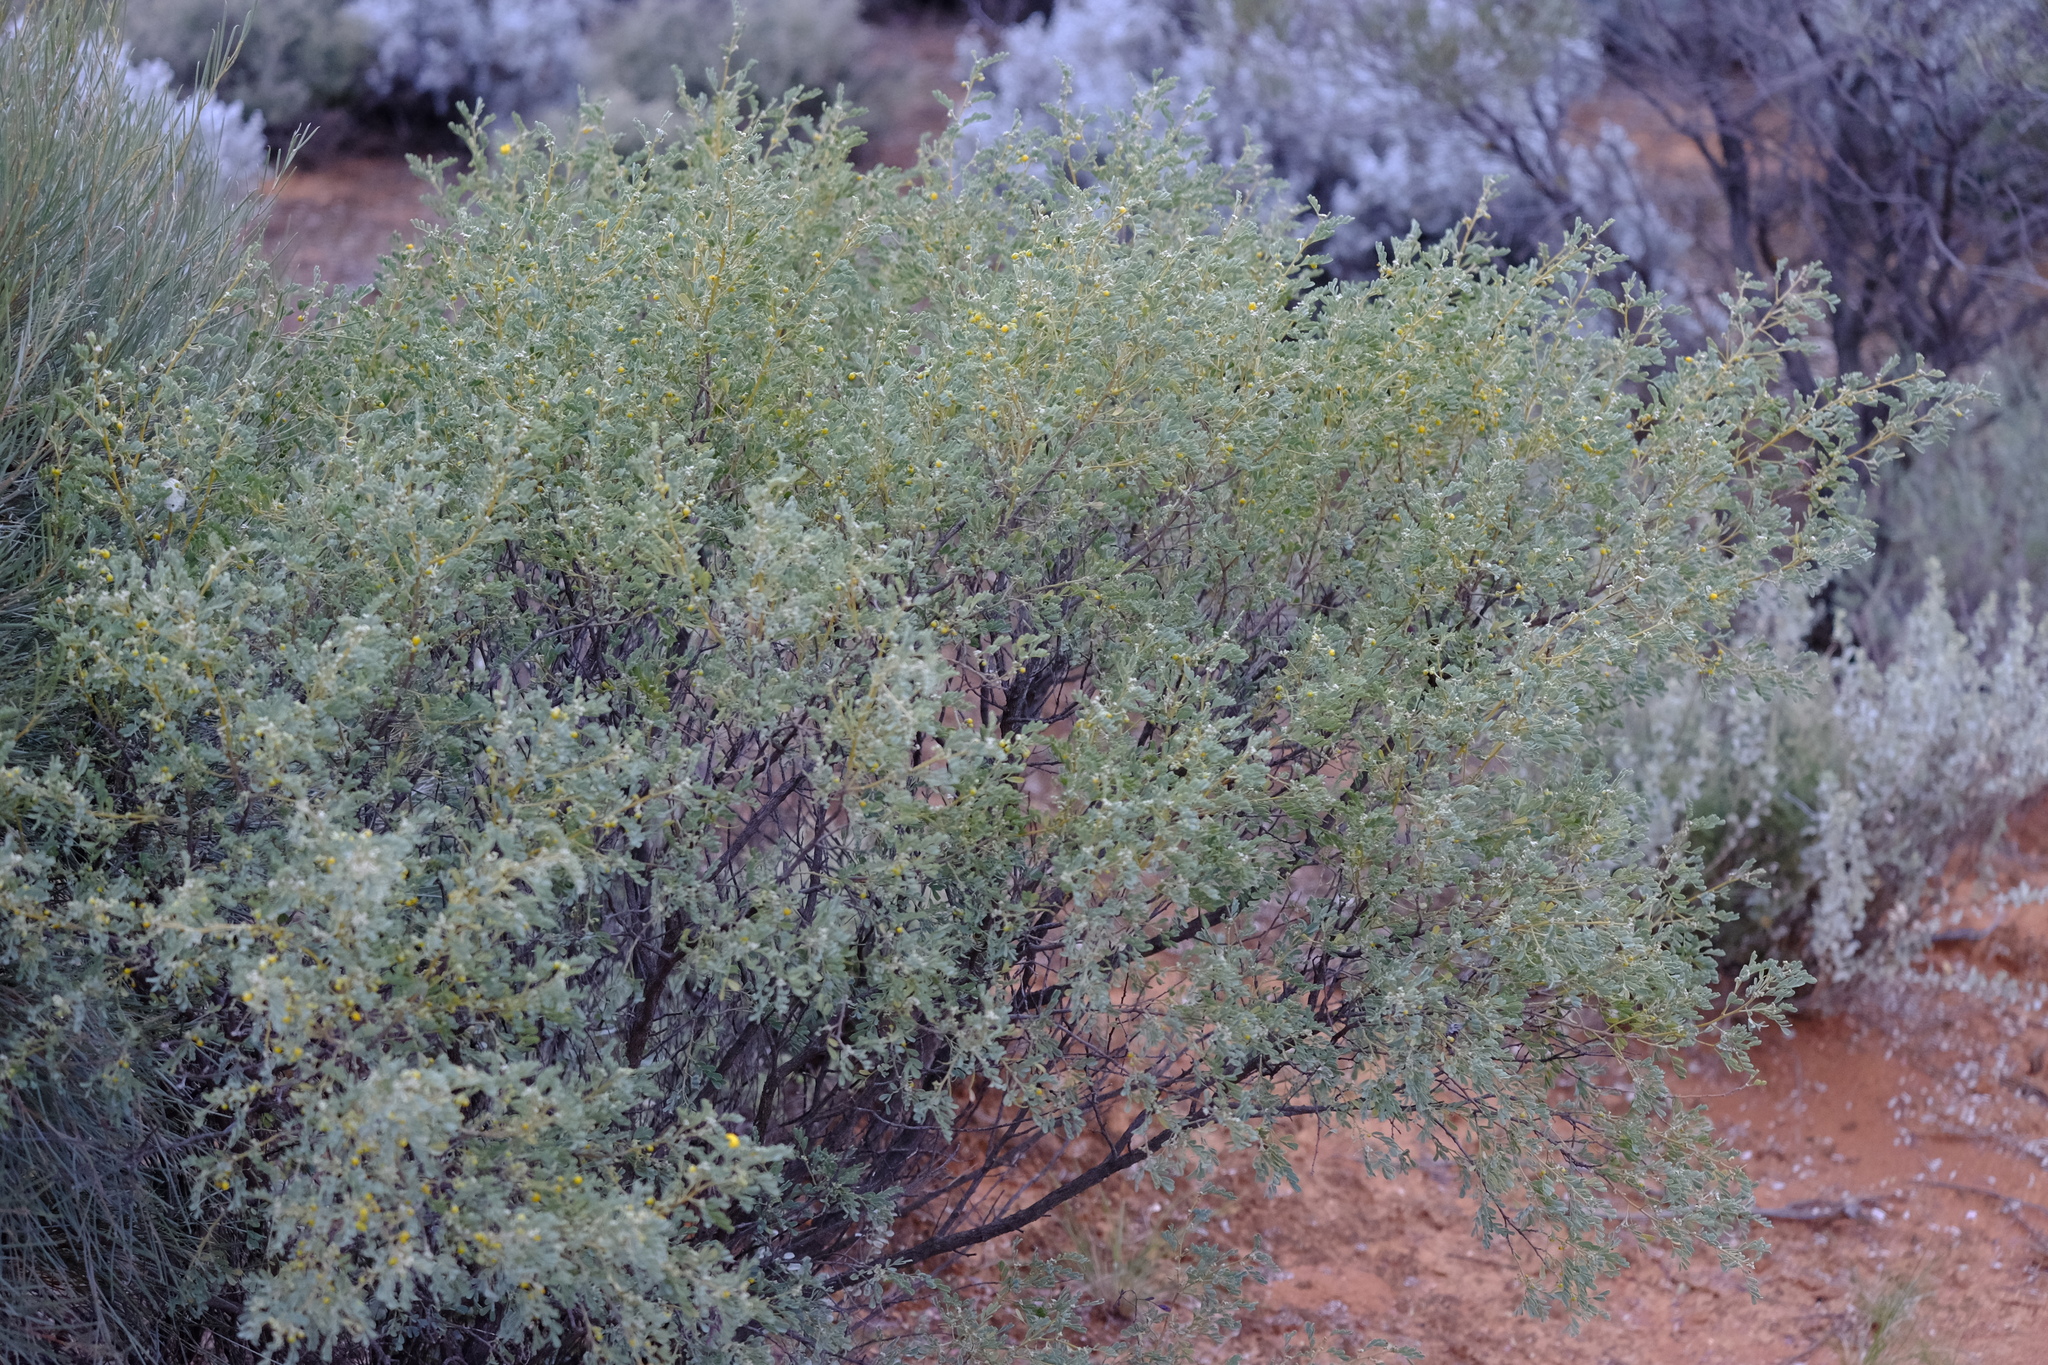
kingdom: Plantae
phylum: Tracheophyta
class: Magnoliopsida
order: Fabales
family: Fabaceae
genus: Senna
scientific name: Senna artemisioides
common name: Burnt-leaved acacia
